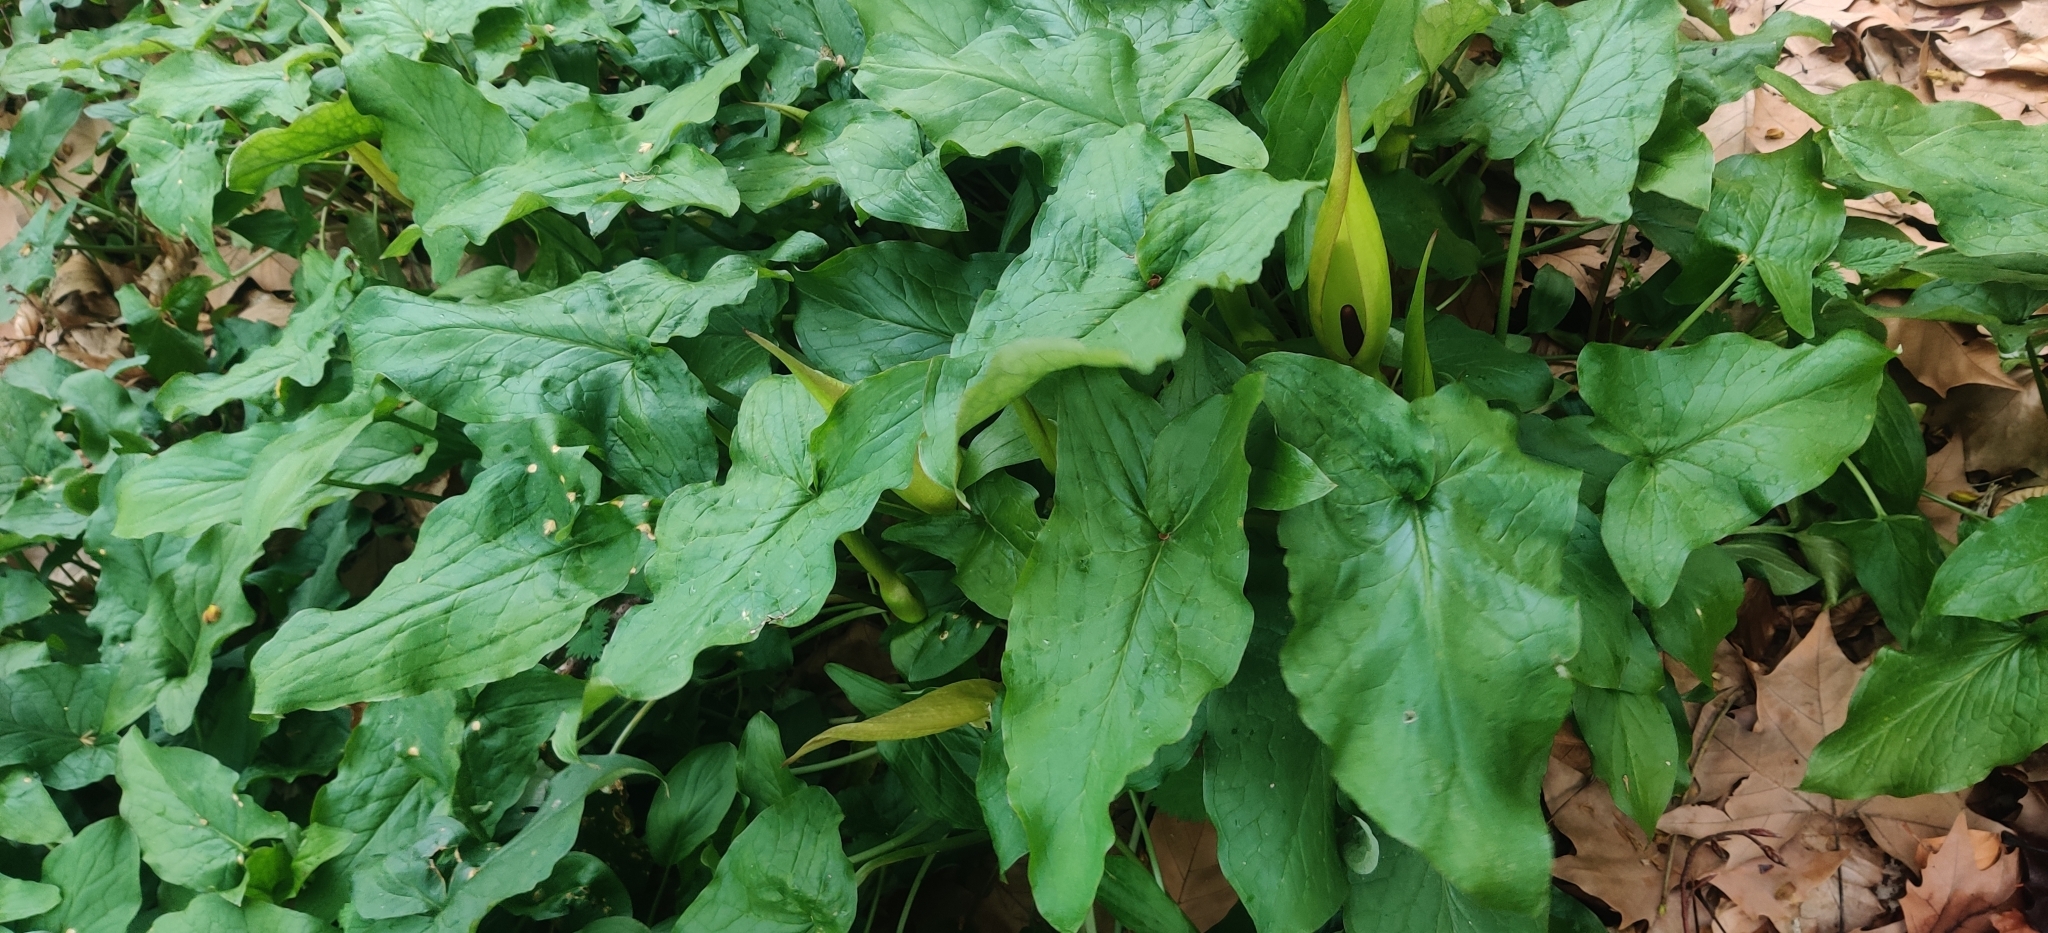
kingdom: Plantae
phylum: Tracheophyta
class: Liliopsida
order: Alismatales
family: Araceae
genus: Arum
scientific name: Arum maculatum
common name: Lords-and-ladies
